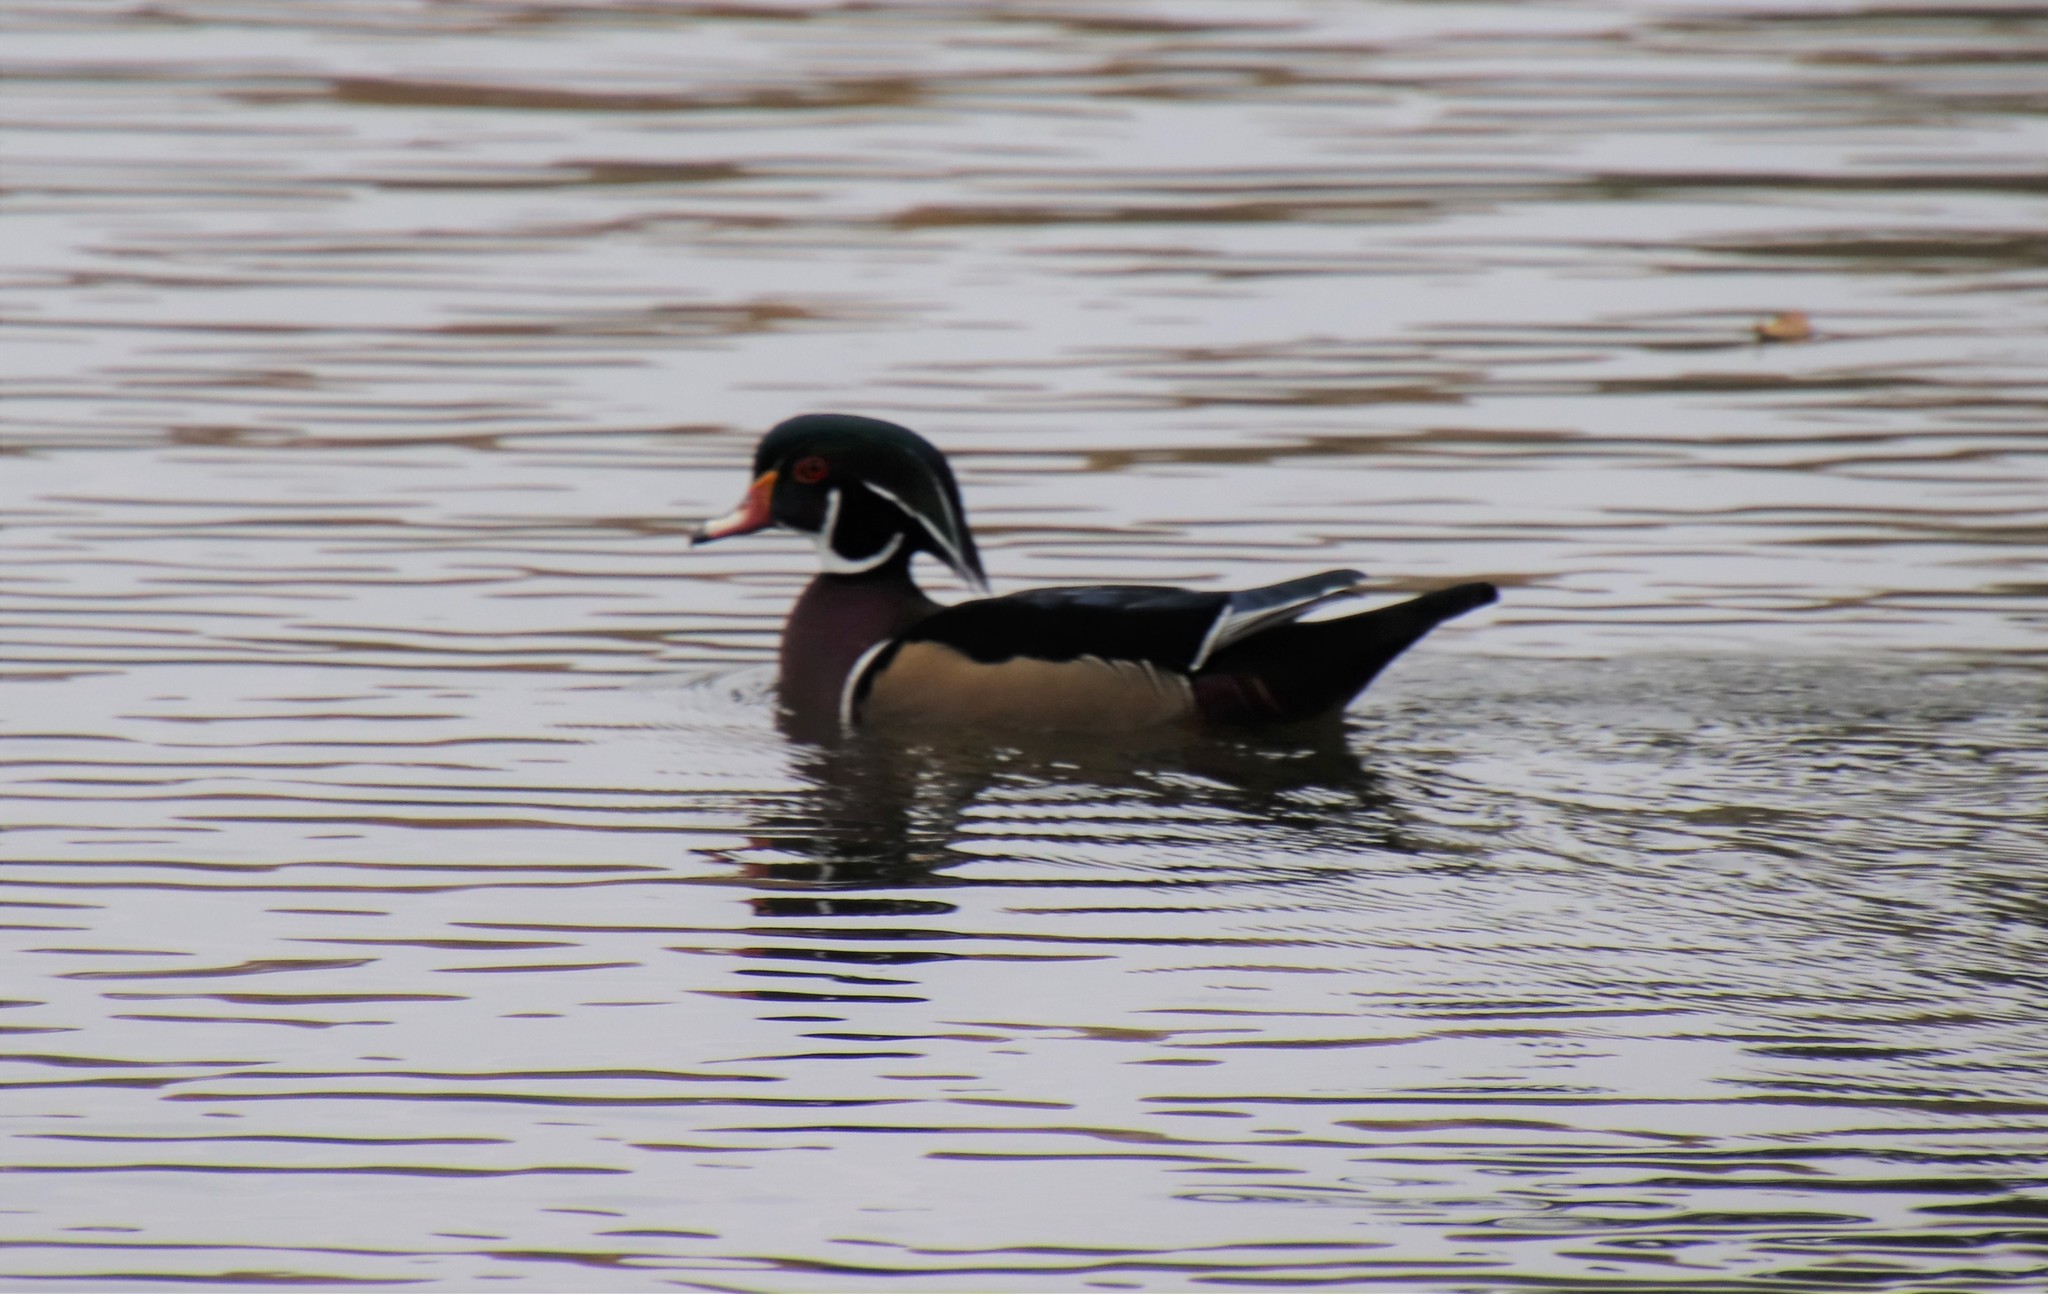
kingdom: Animalia
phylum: Chordata
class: Aves
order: Anseriformes
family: Anatidae
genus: Aix
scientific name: Aix sponsa
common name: Wood duck
